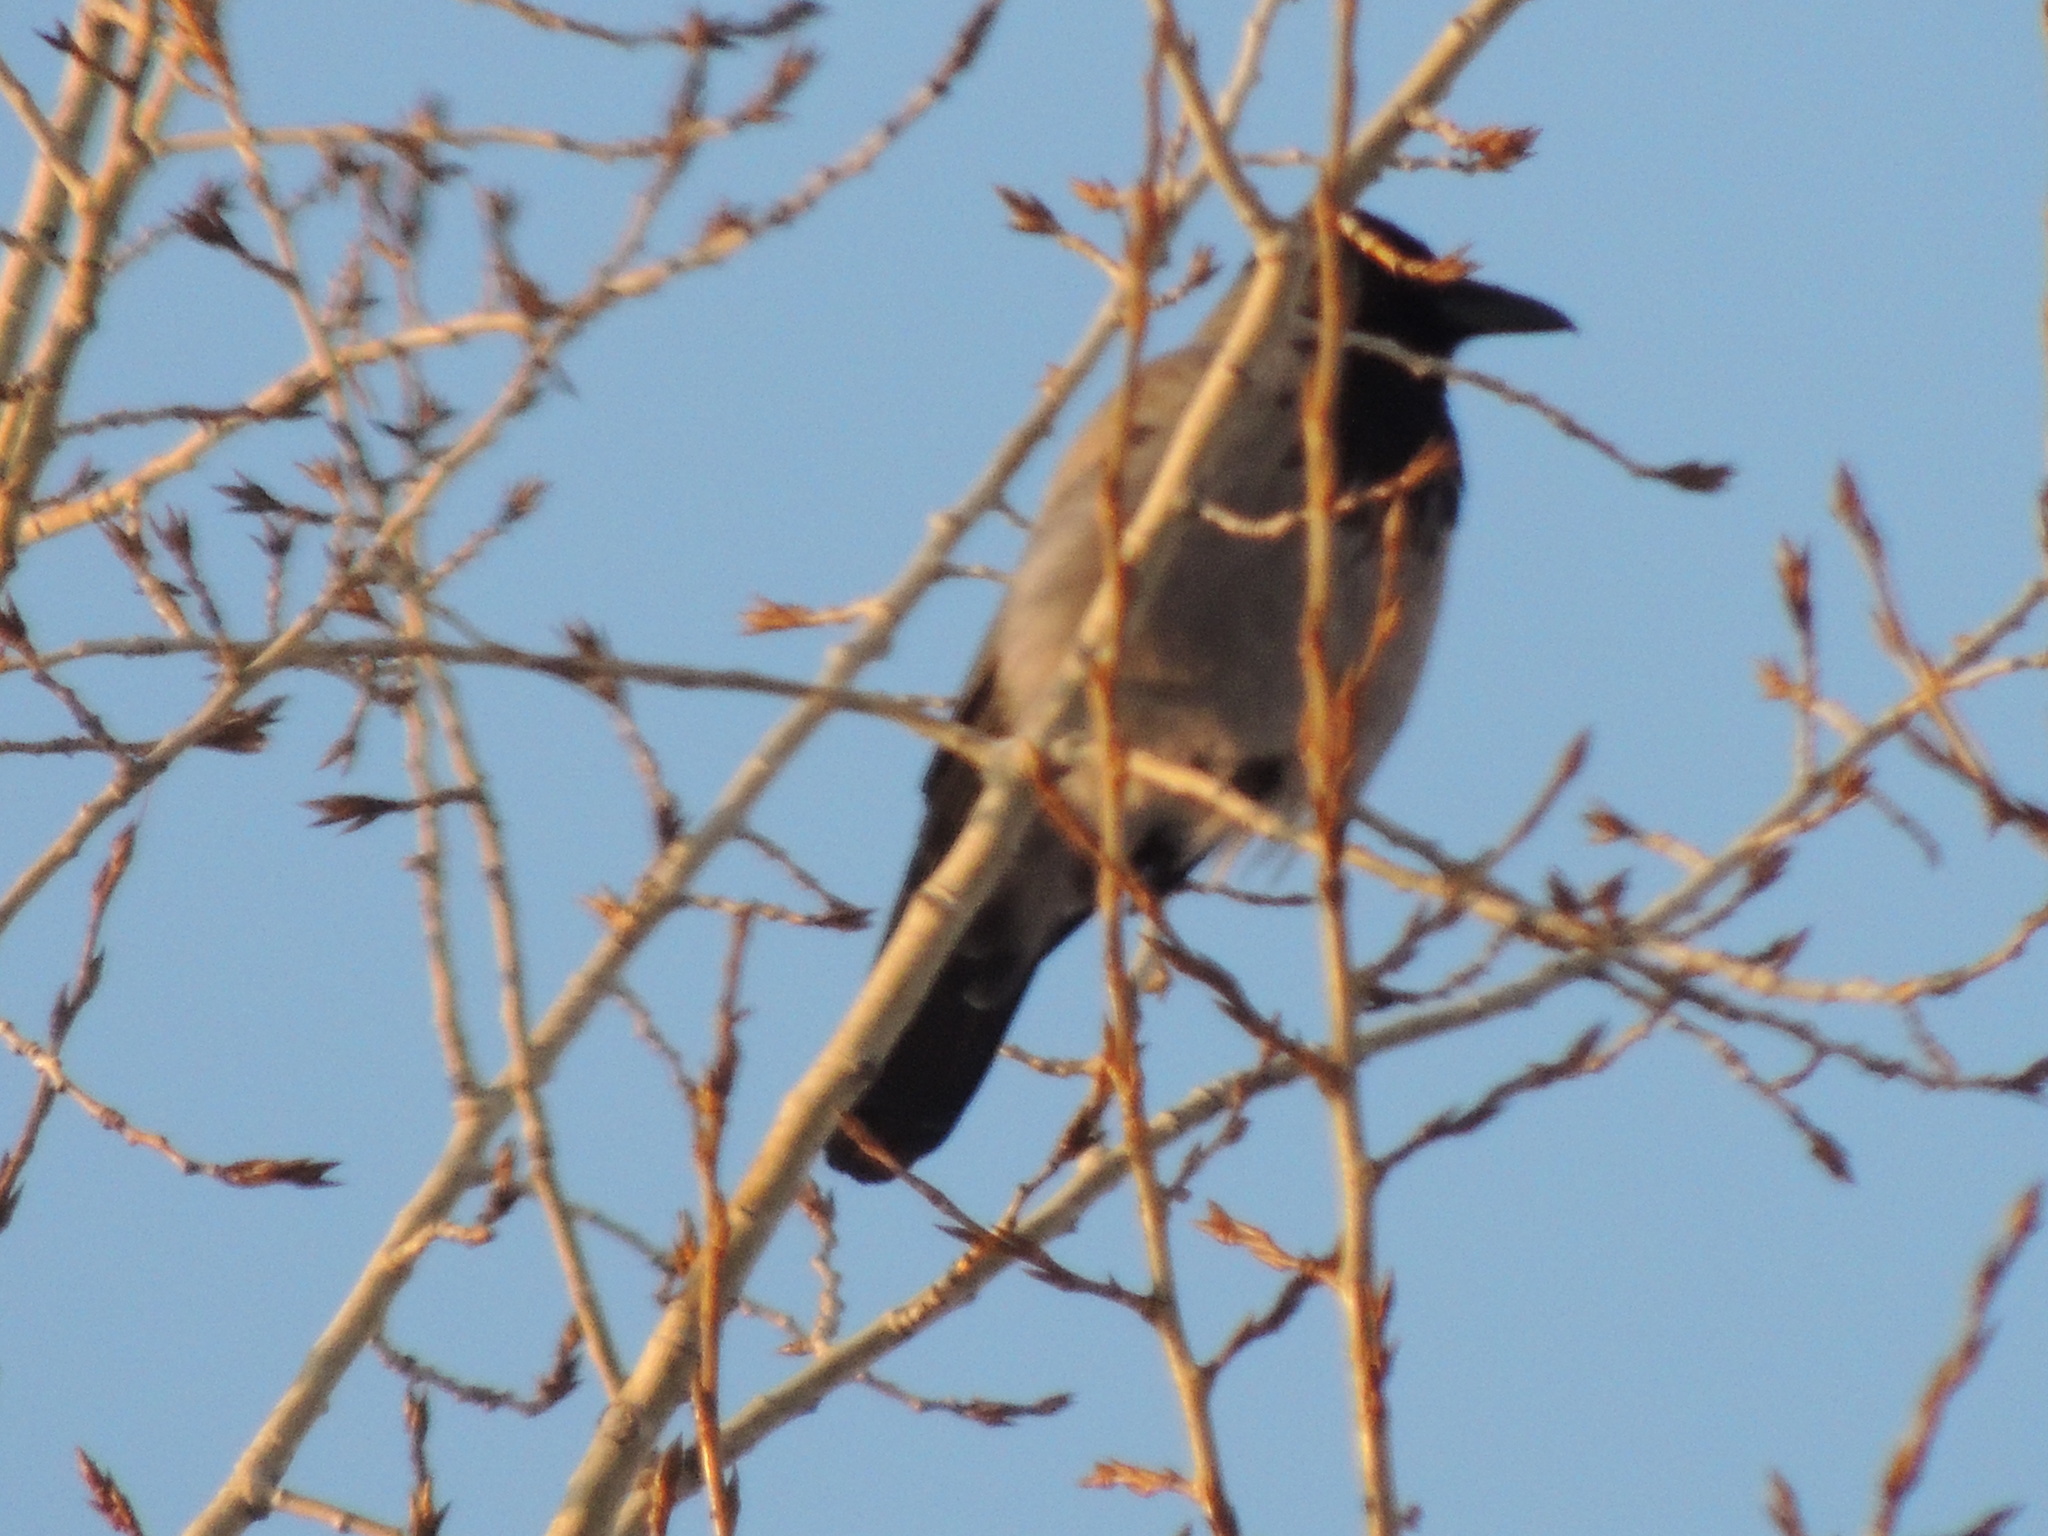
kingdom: Animalia
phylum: Chordata
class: Aves
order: Passeriformes
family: Corvidae
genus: Corvus
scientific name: Corvus cornix
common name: Hooded crow
